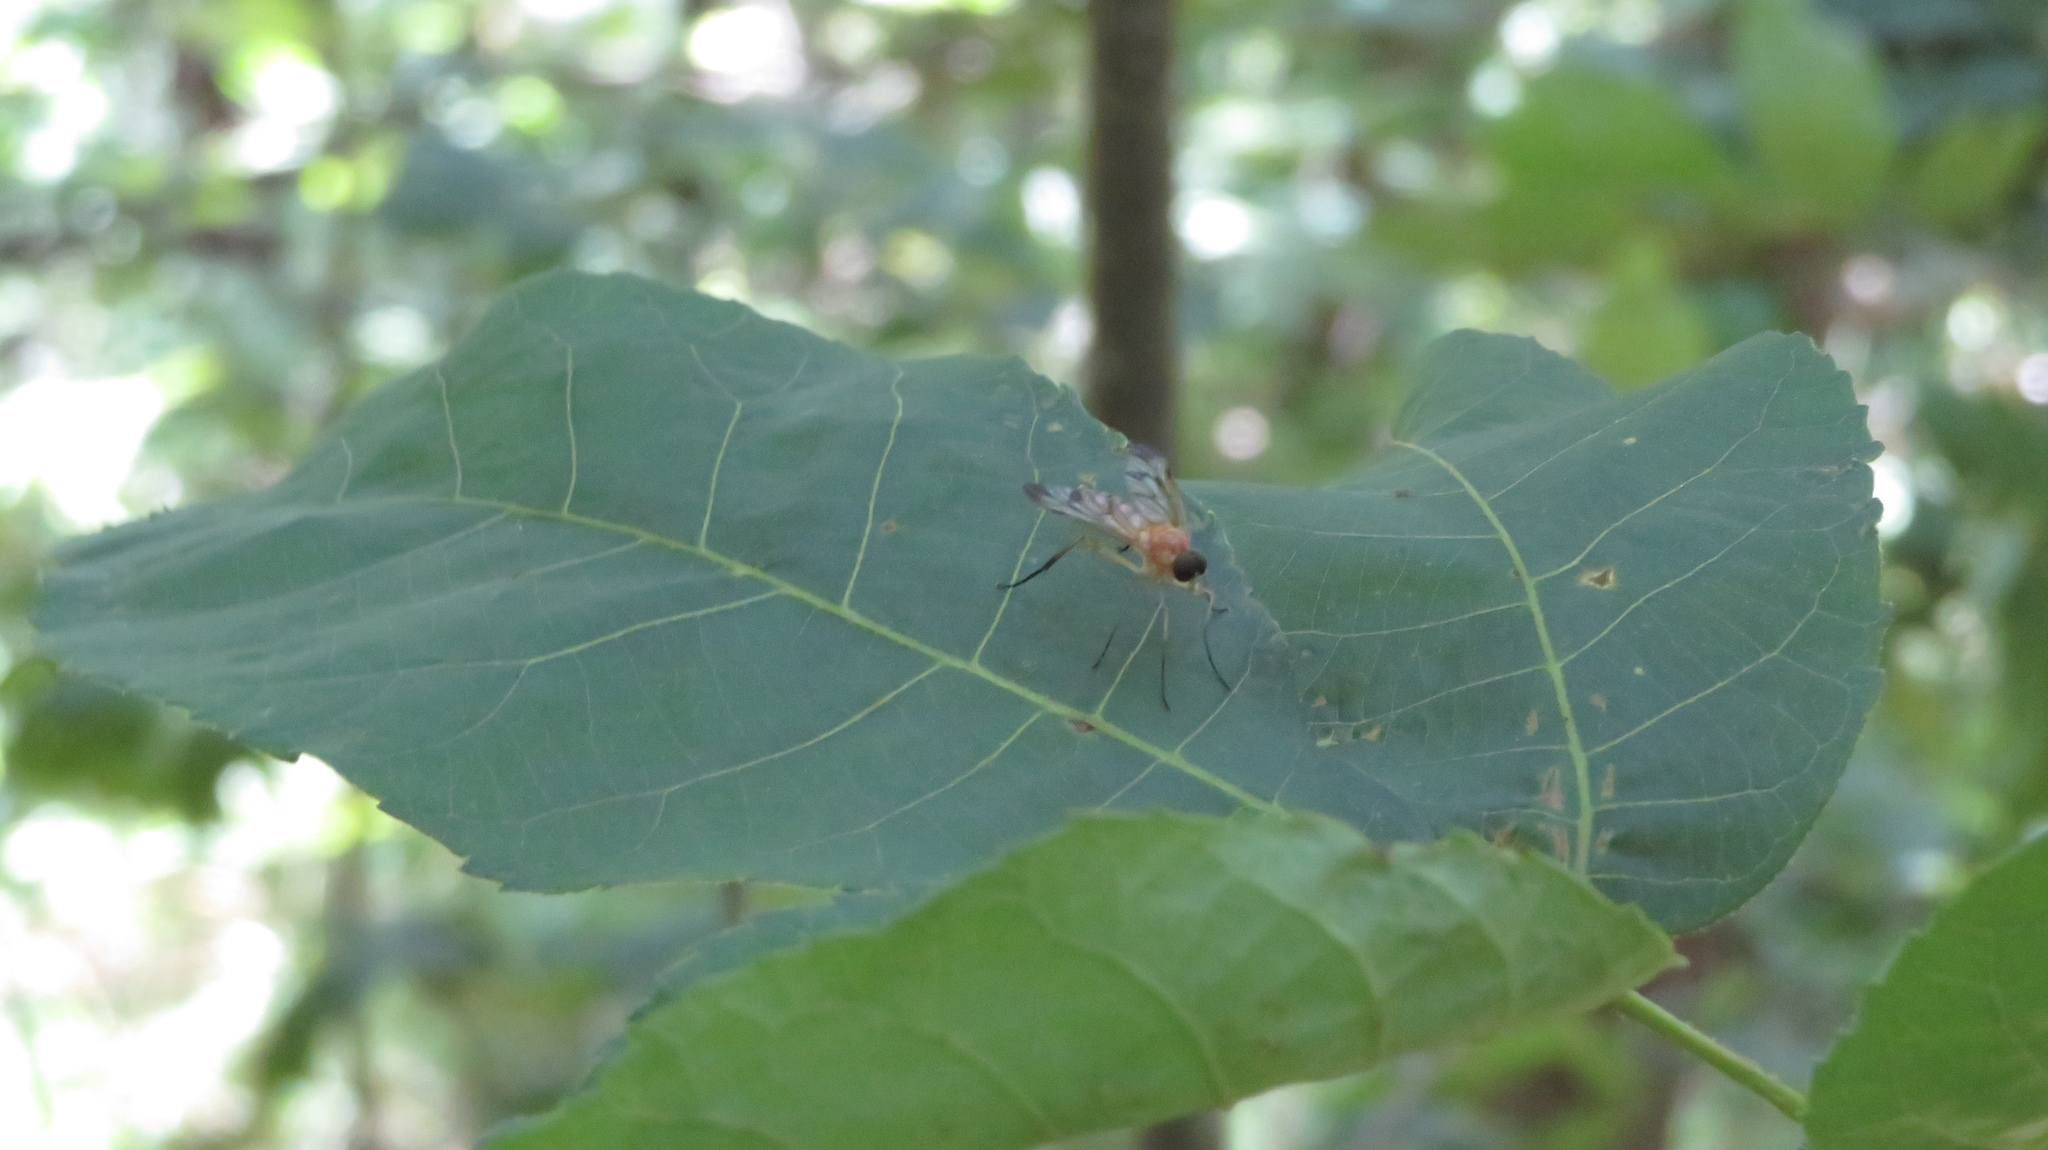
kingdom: Animalia
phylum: Arthropoda
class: Insecta
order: Diptera
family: Rhagionidae
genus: Rhagio
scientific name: Rhagio floridensis
